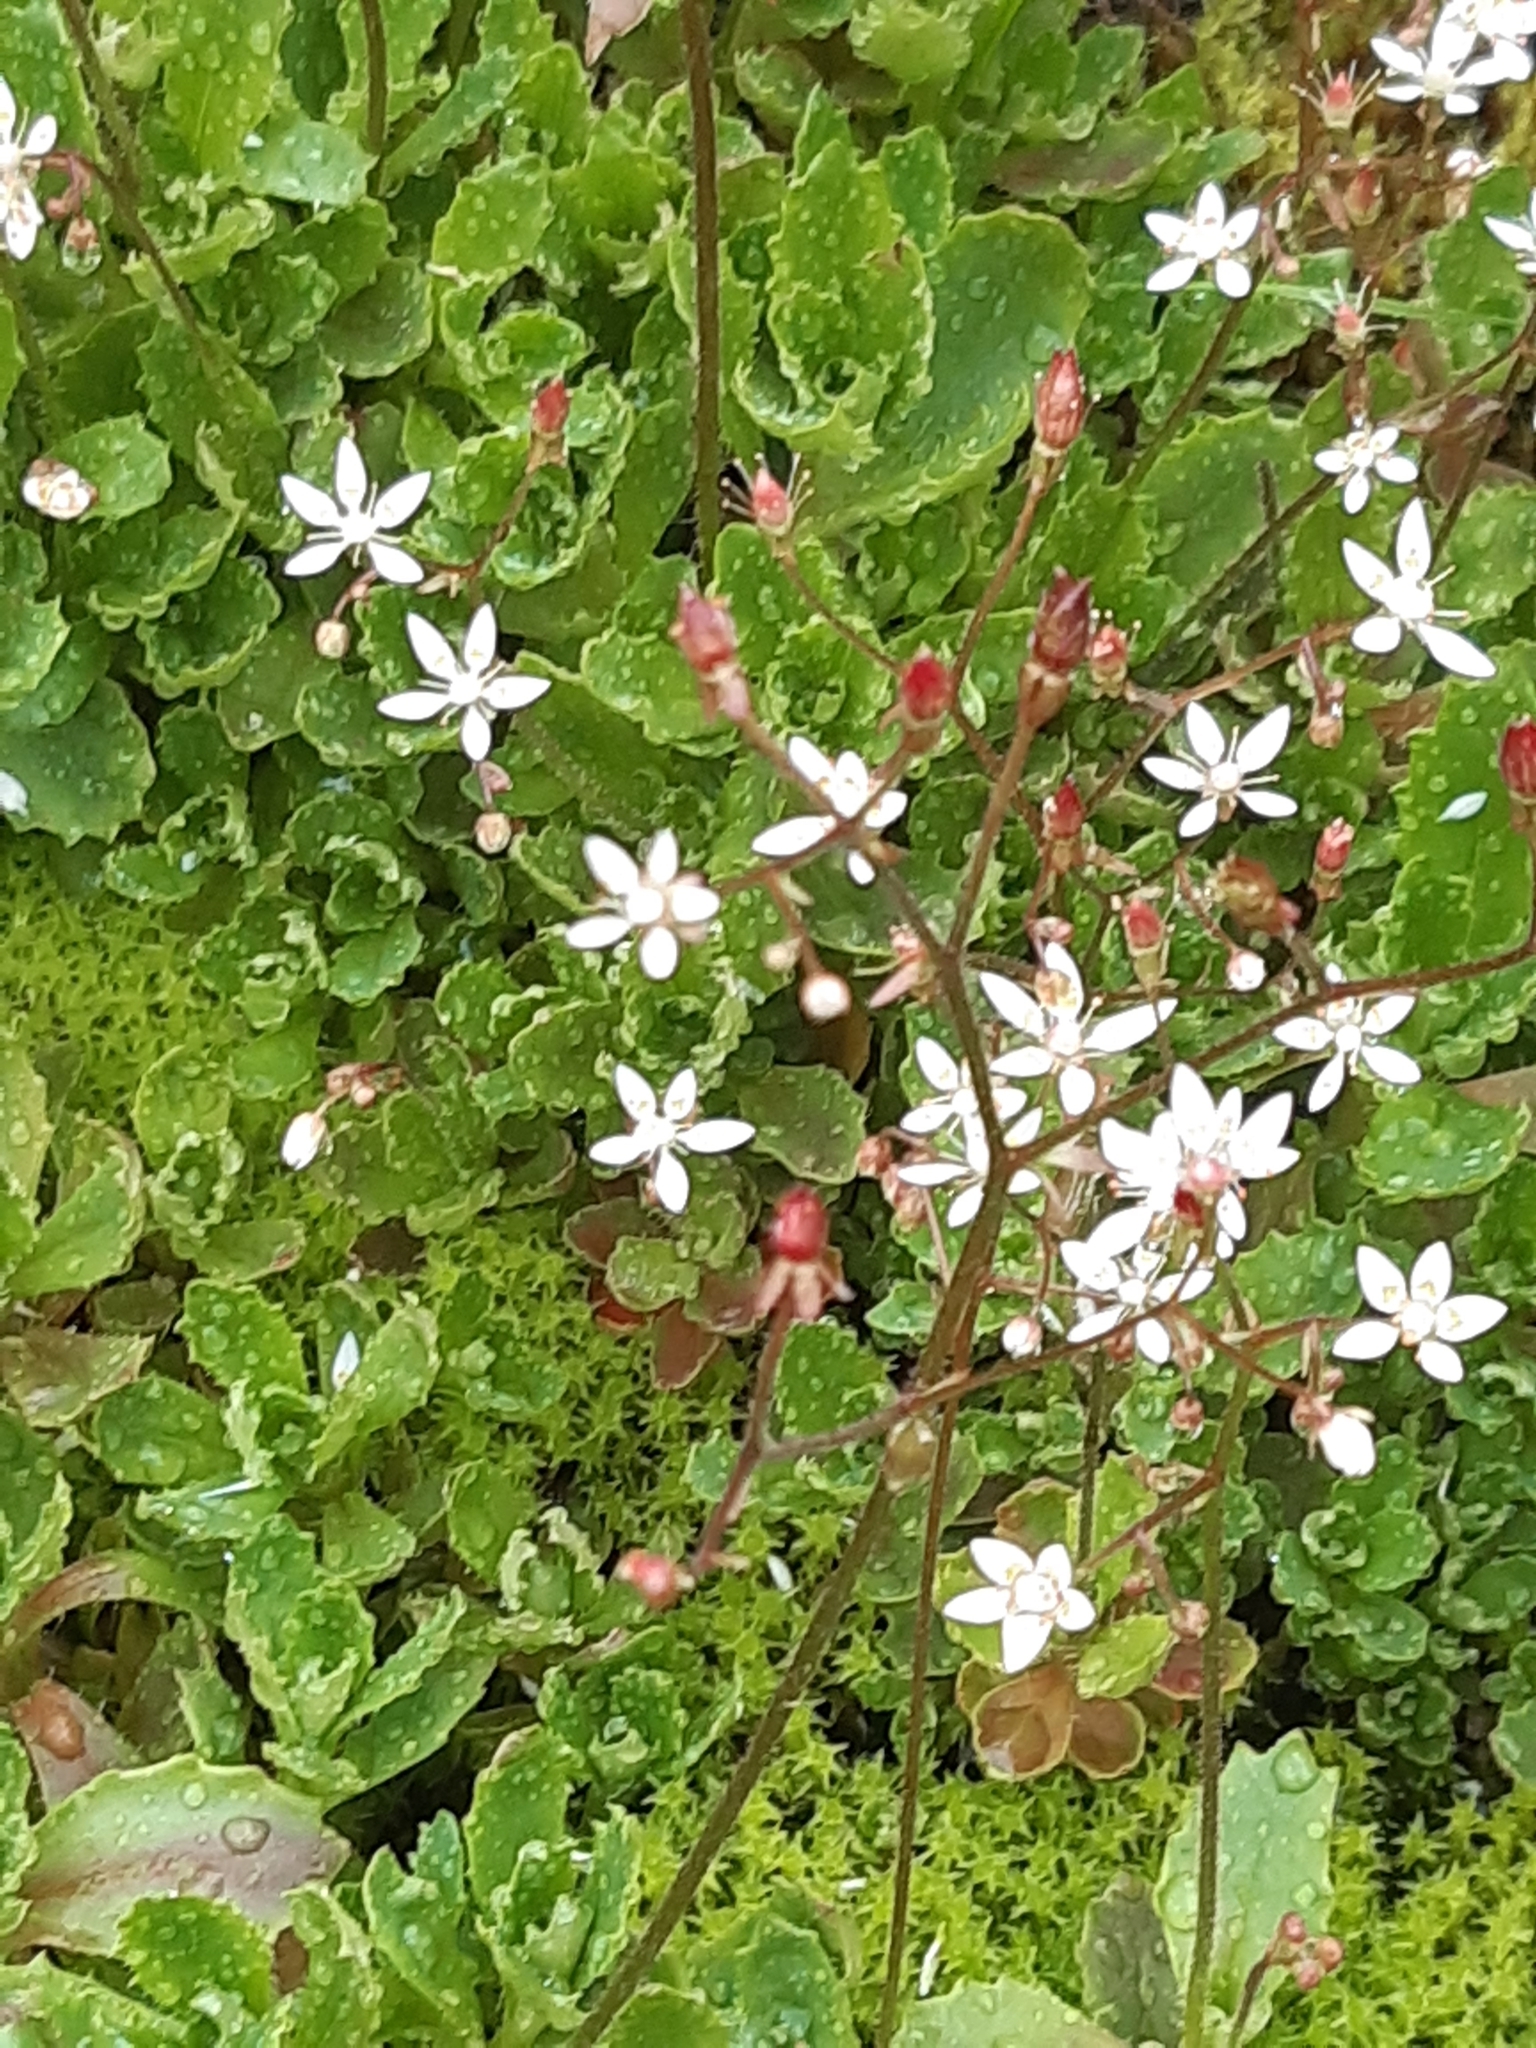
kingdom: Plantae
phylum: Tracheophyta
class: Magnoliopsida
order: Saxifragales
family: Saxifragaceae
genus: Micranthes
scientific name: Micranthes stellaris
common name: Starry saxifrage
